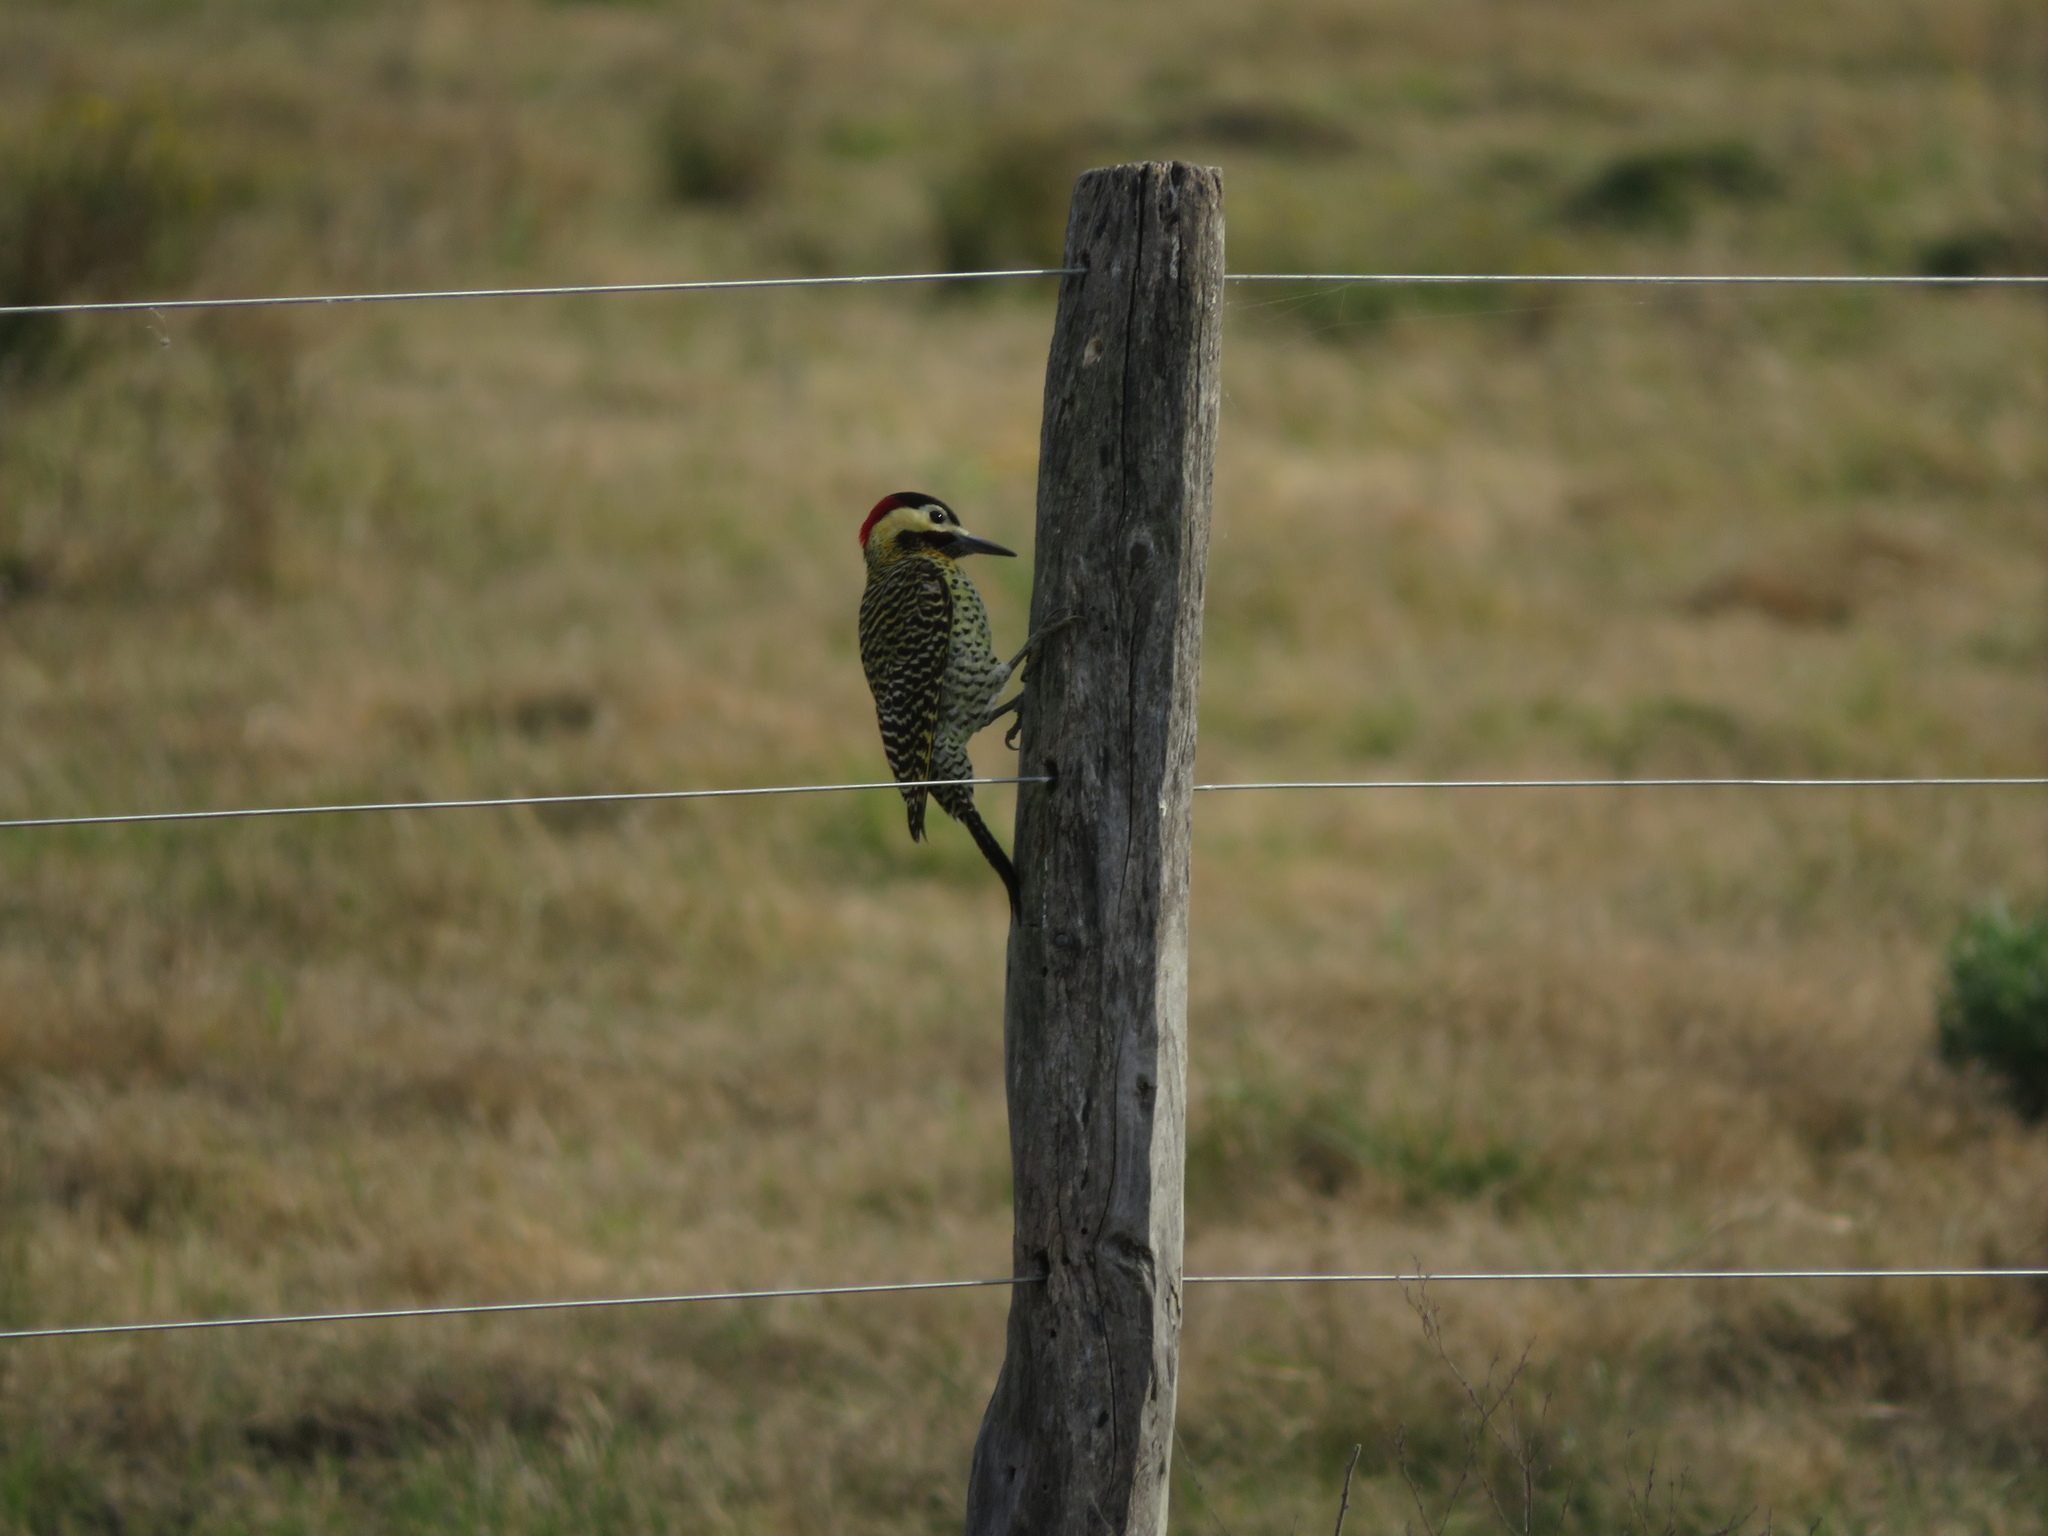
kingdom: Animalia
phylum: Chordata
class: Aves
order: Piciformes
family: Picidae
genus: Colaptes
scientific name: Colaptes melanochloros
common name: Green-barred woodpecker
